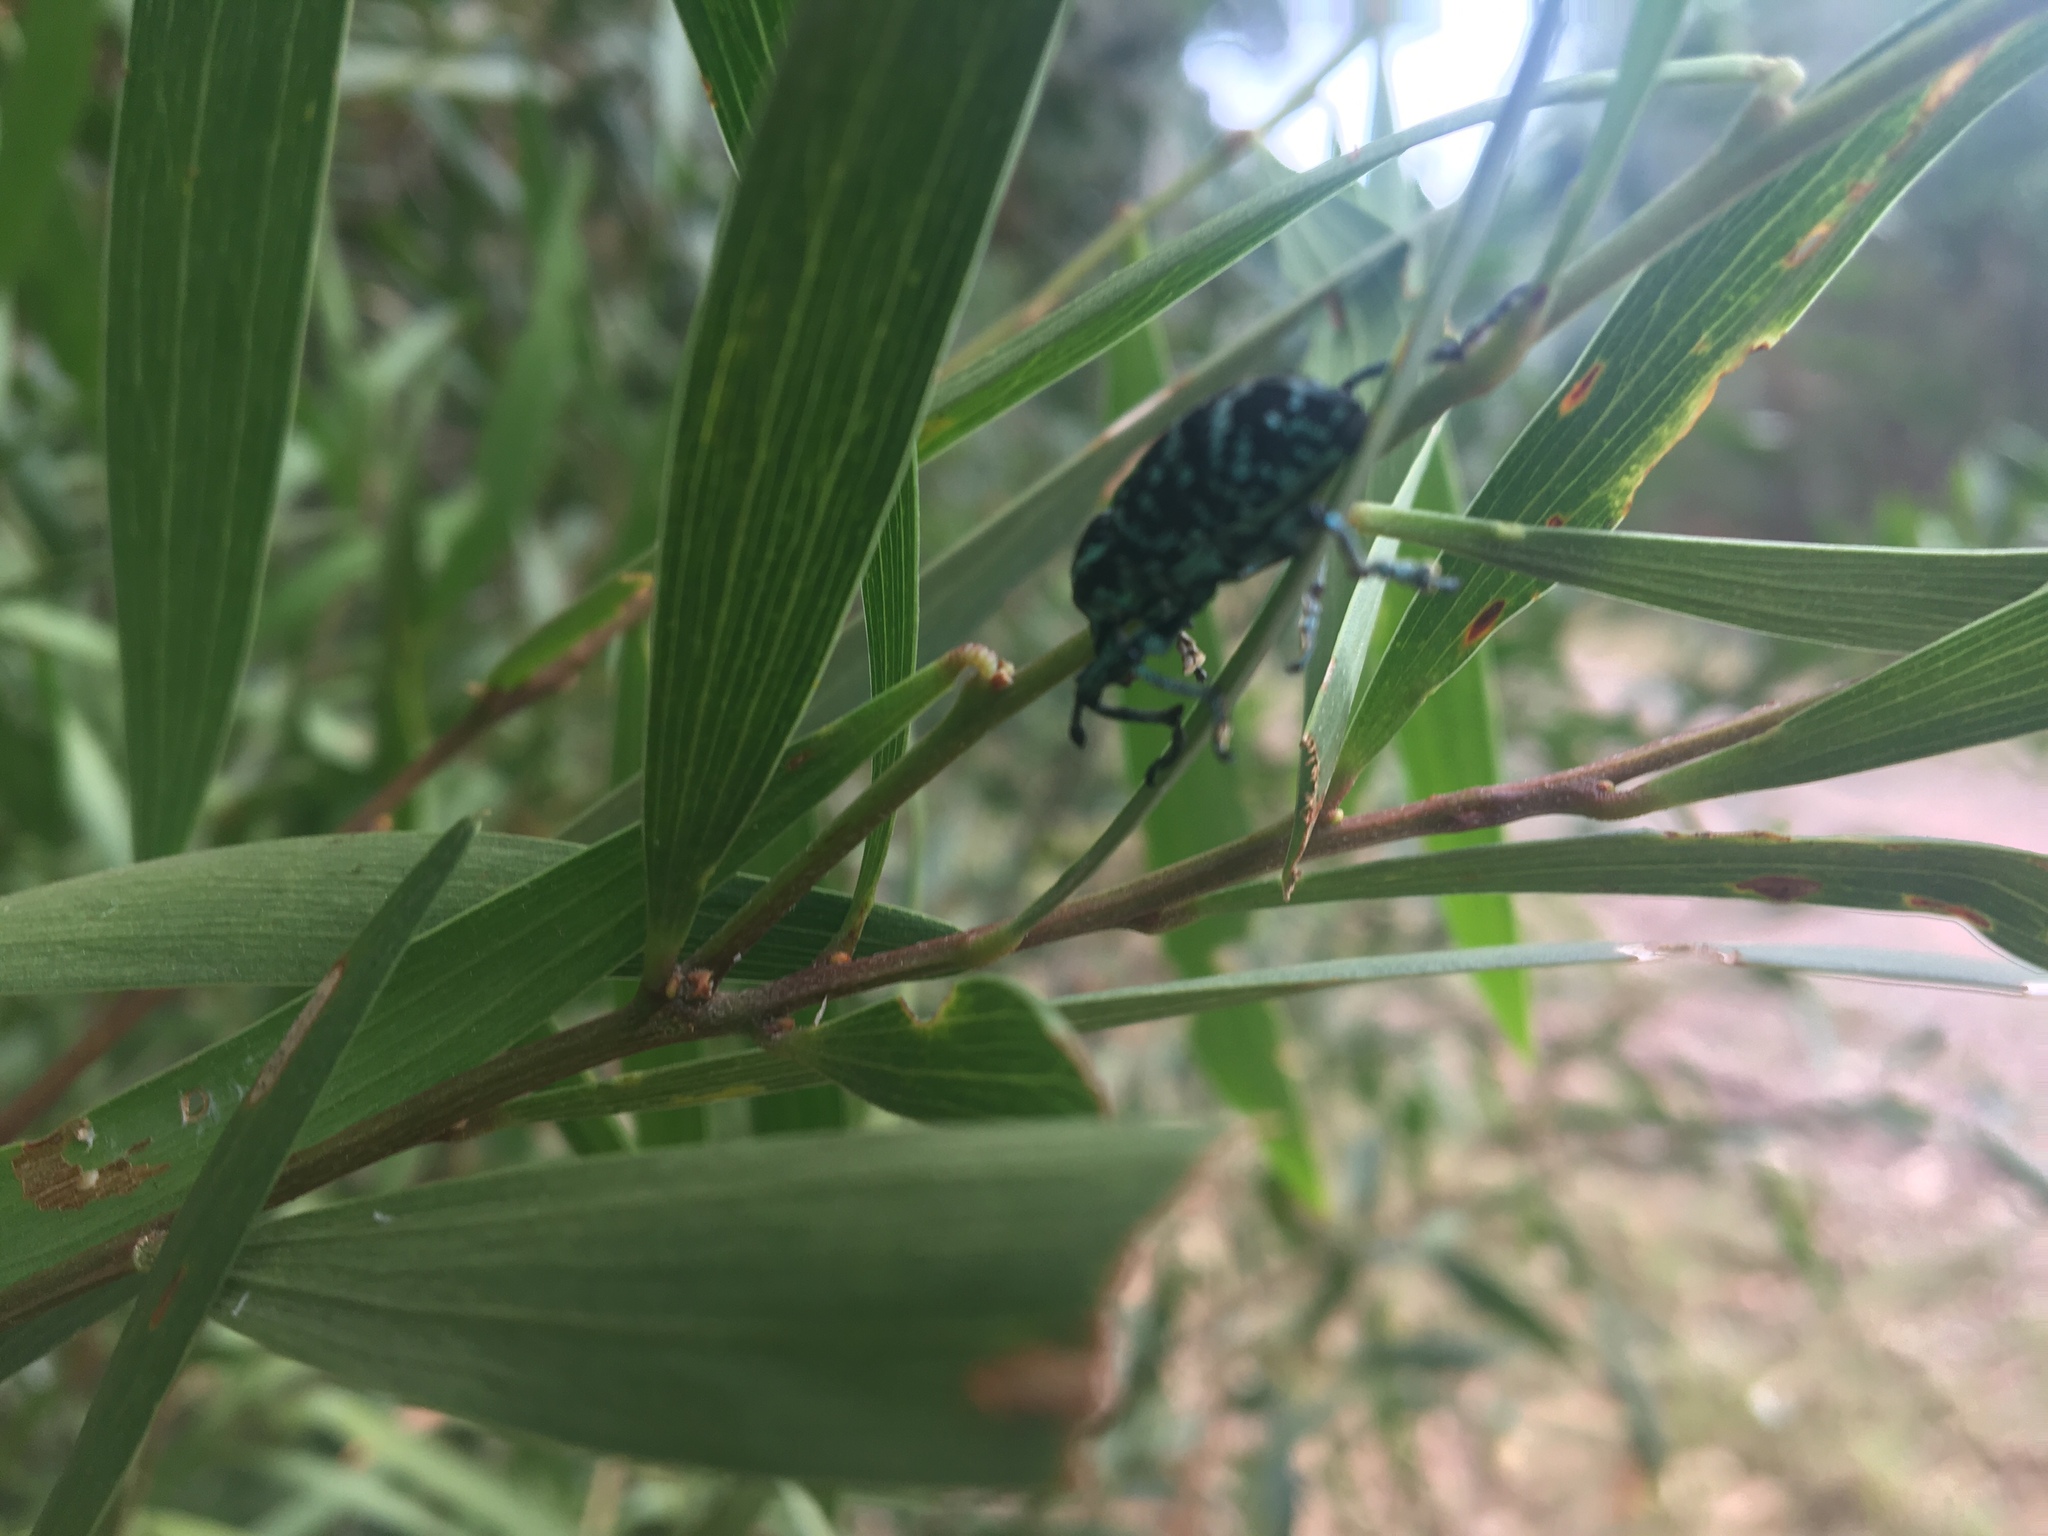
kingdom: Animalia
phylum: Arthropoda
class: Insecta
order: Coleoptera
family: Curculionidae
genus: Chrysolopus
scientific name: Chrysolopus spectabilis
